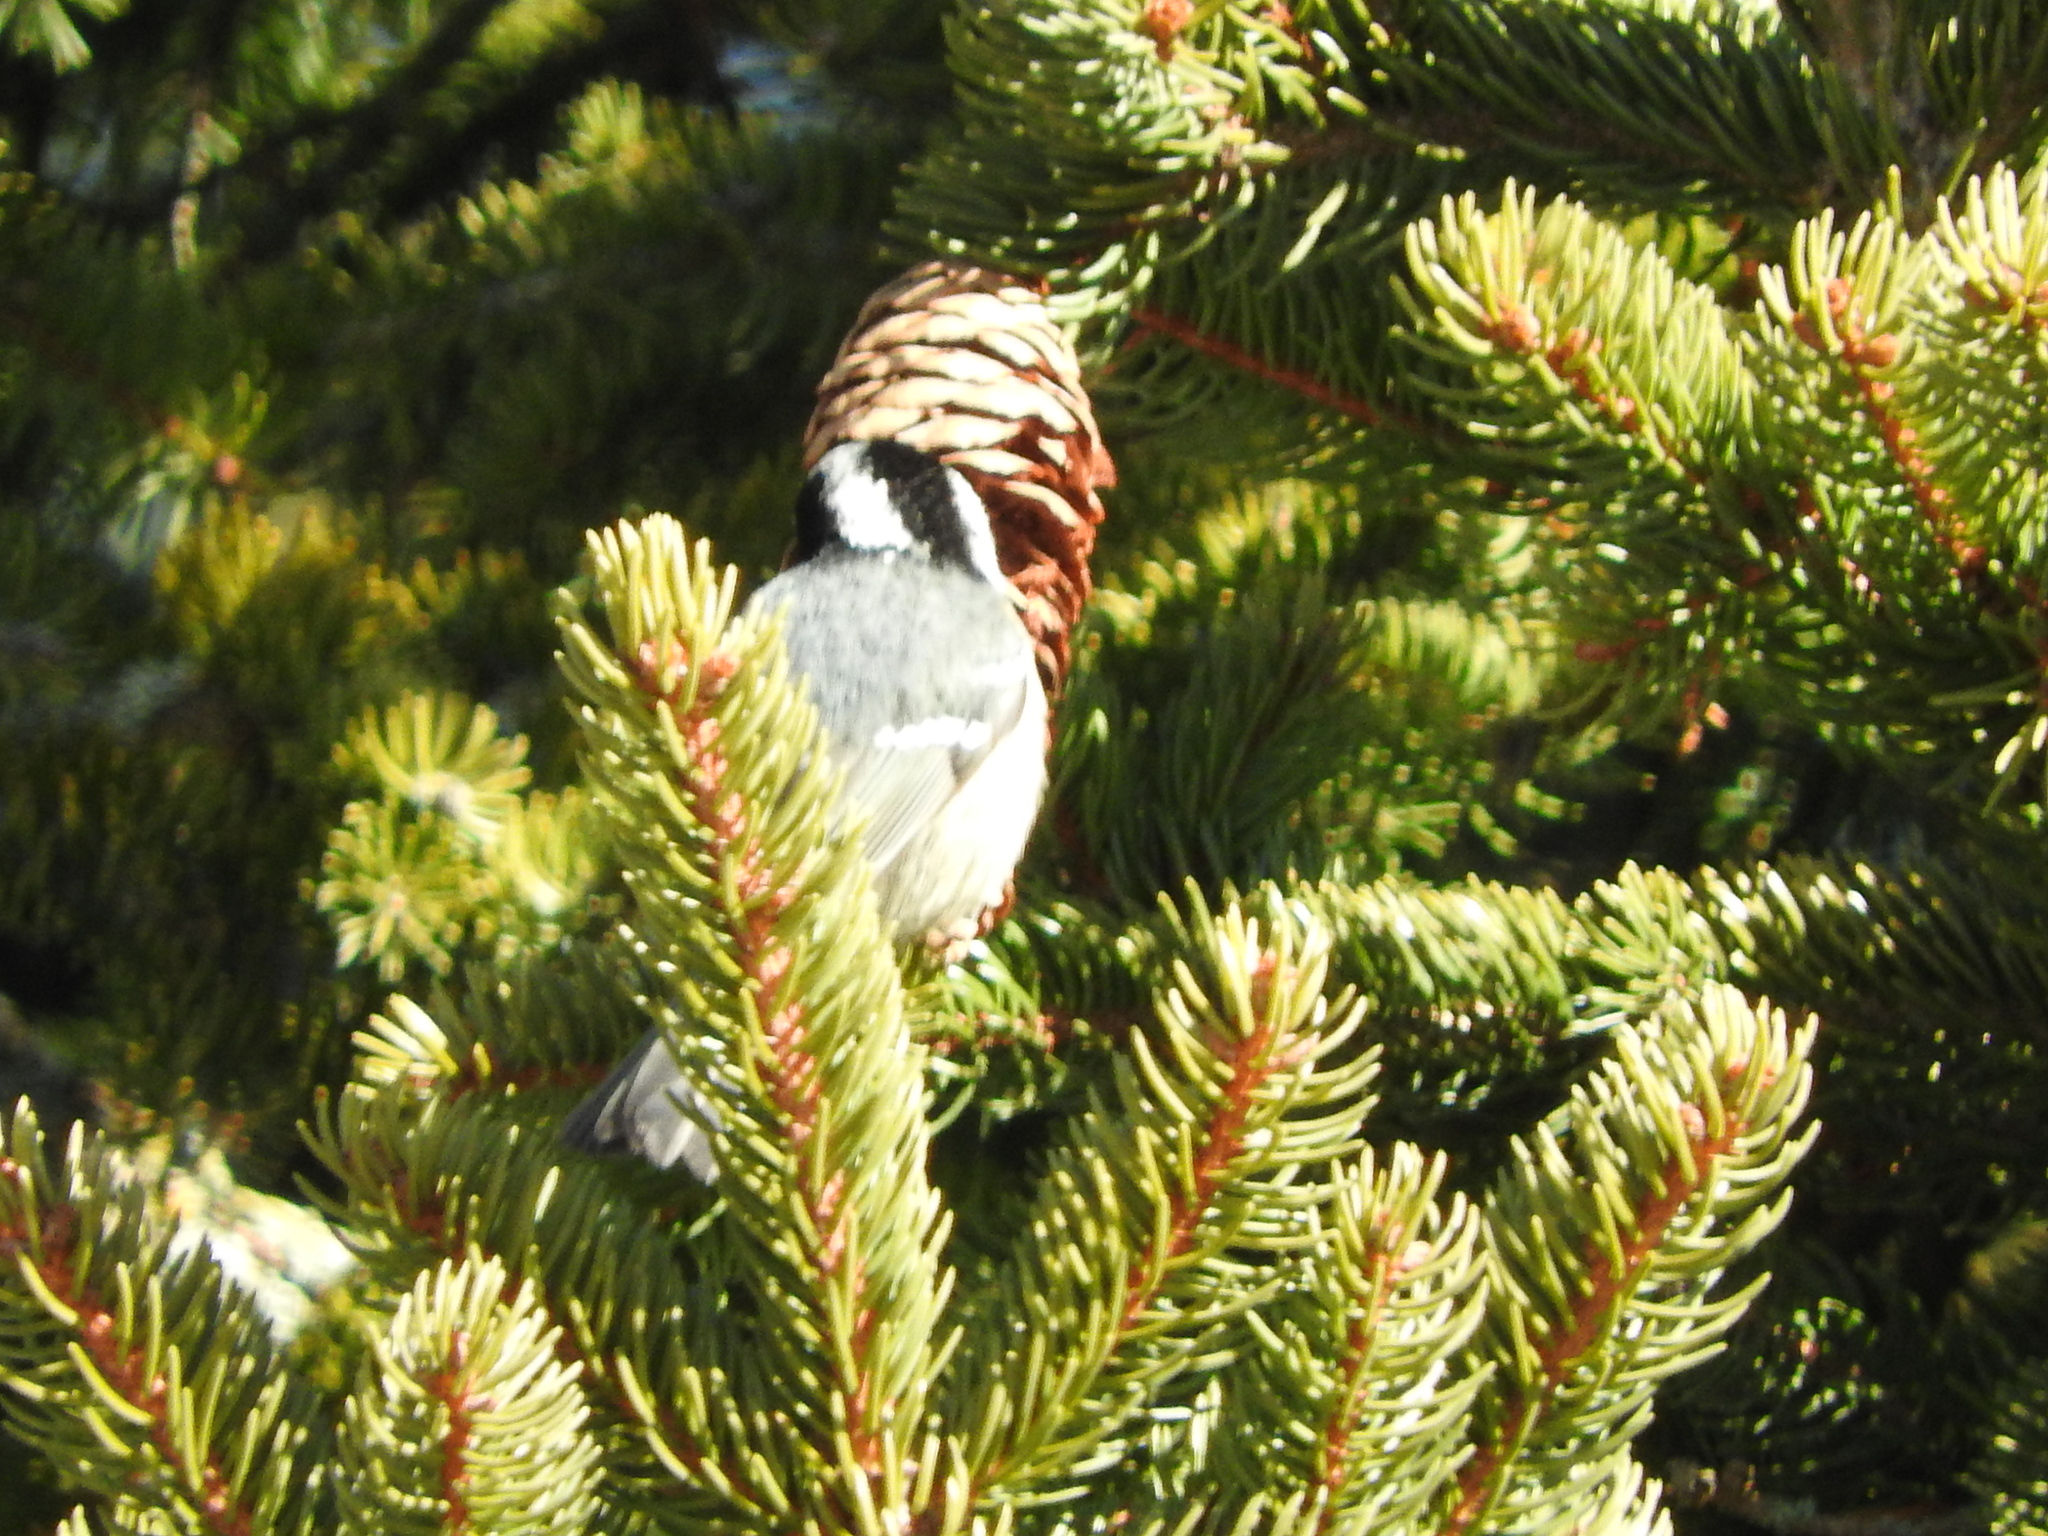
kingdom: Animalia
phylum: Chordata
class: Aves
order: Passeriformes
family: Paridae
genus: Periparus
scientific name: Periparus ater
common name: Coal tit
